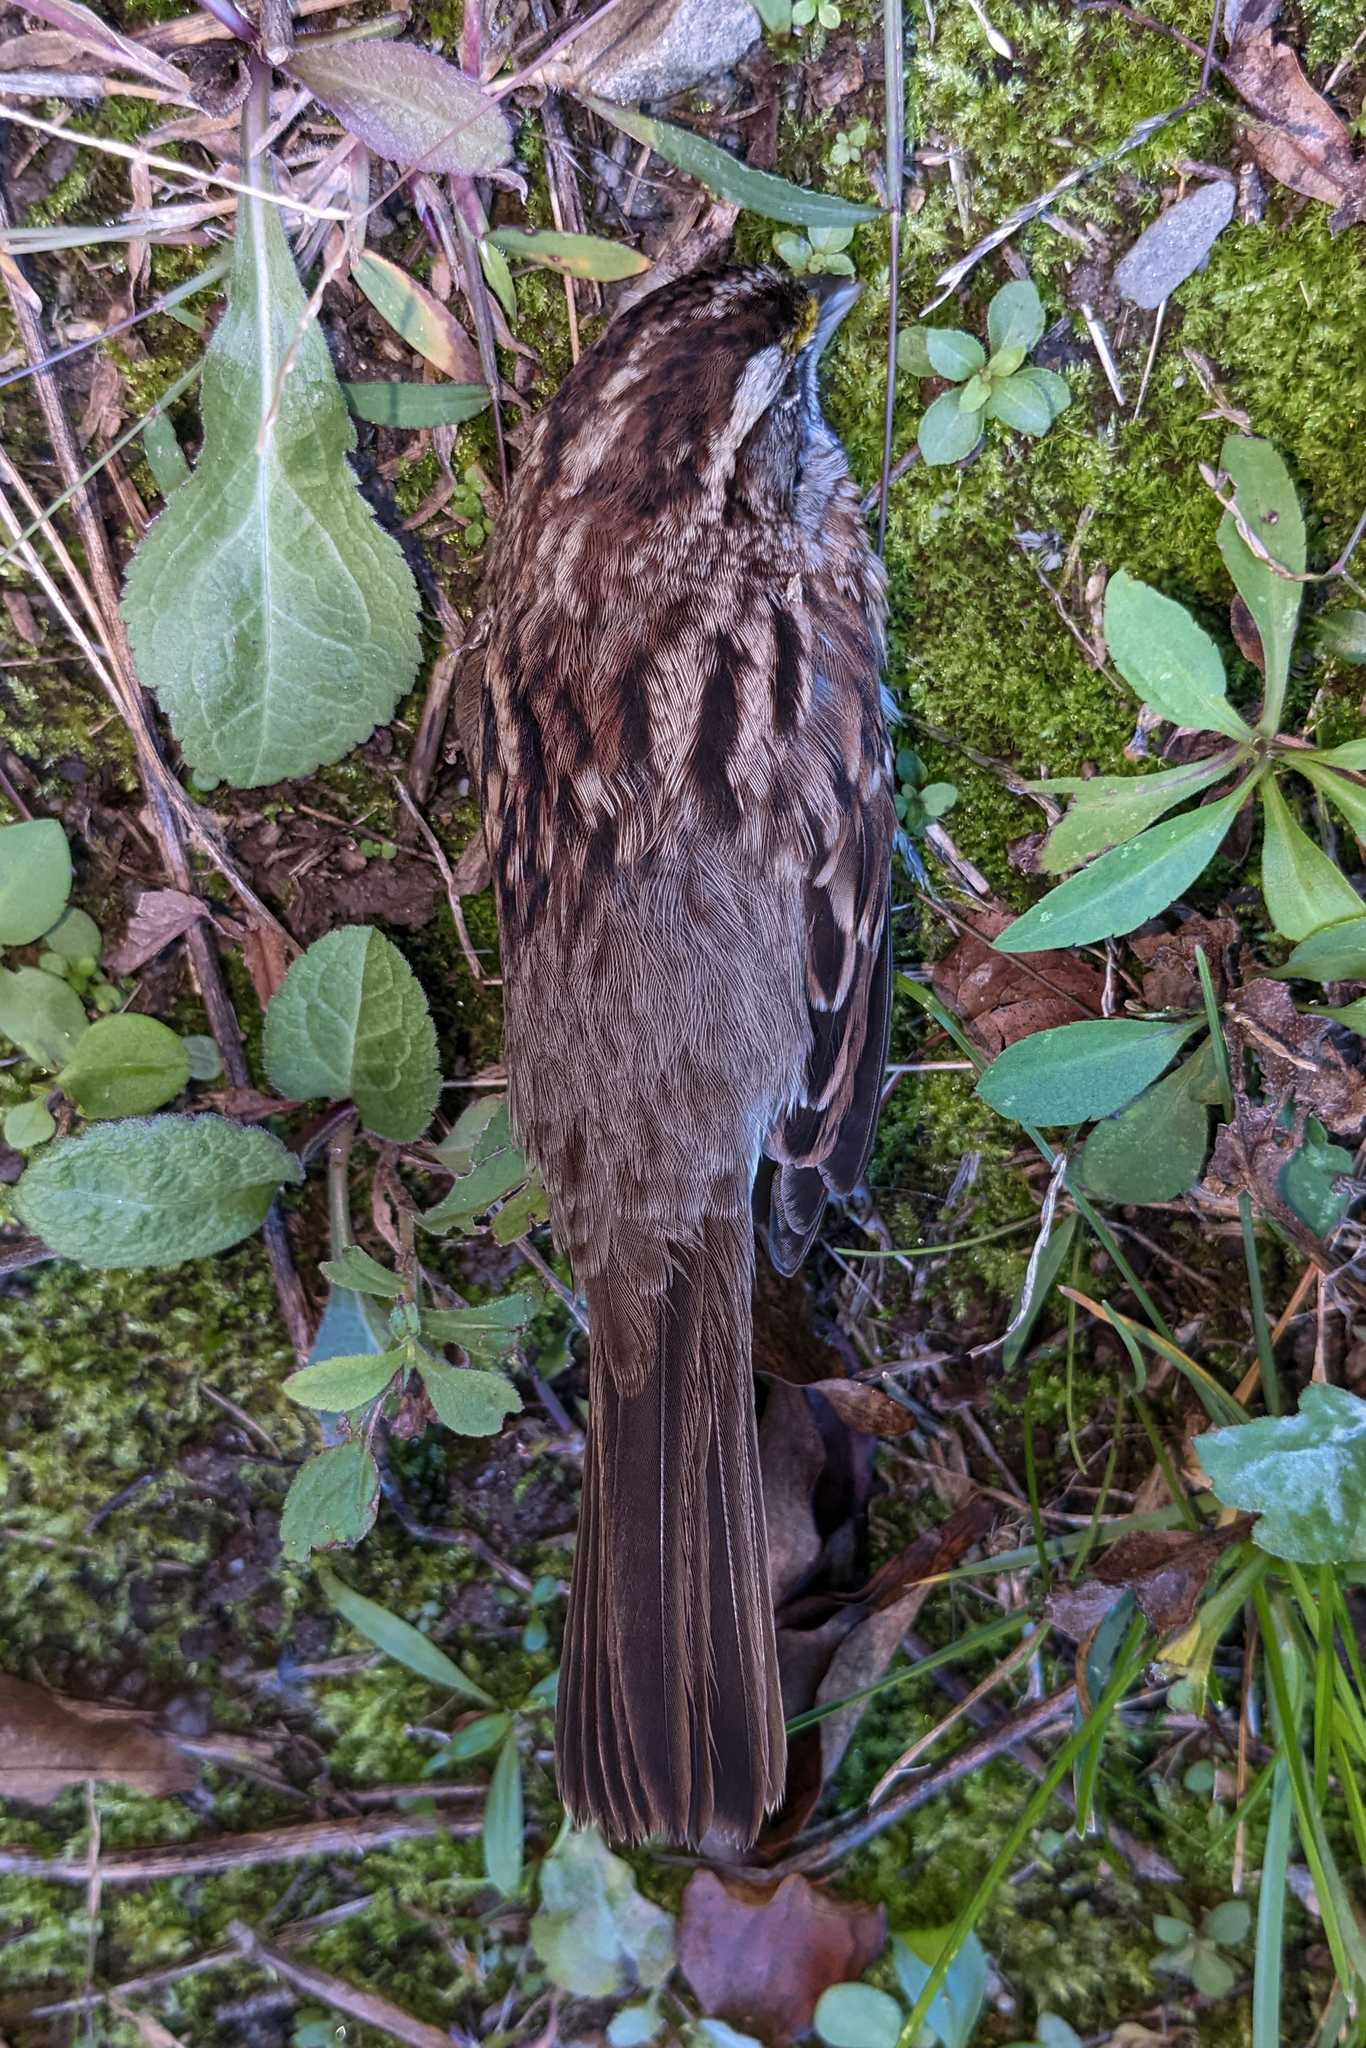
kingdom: Animalia
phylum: Chordata
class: Aves
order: Passeriformes
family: Passerellidae
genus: Zonotrichia
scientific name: Zonotrichia albicollis
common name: White-throated sparrow
